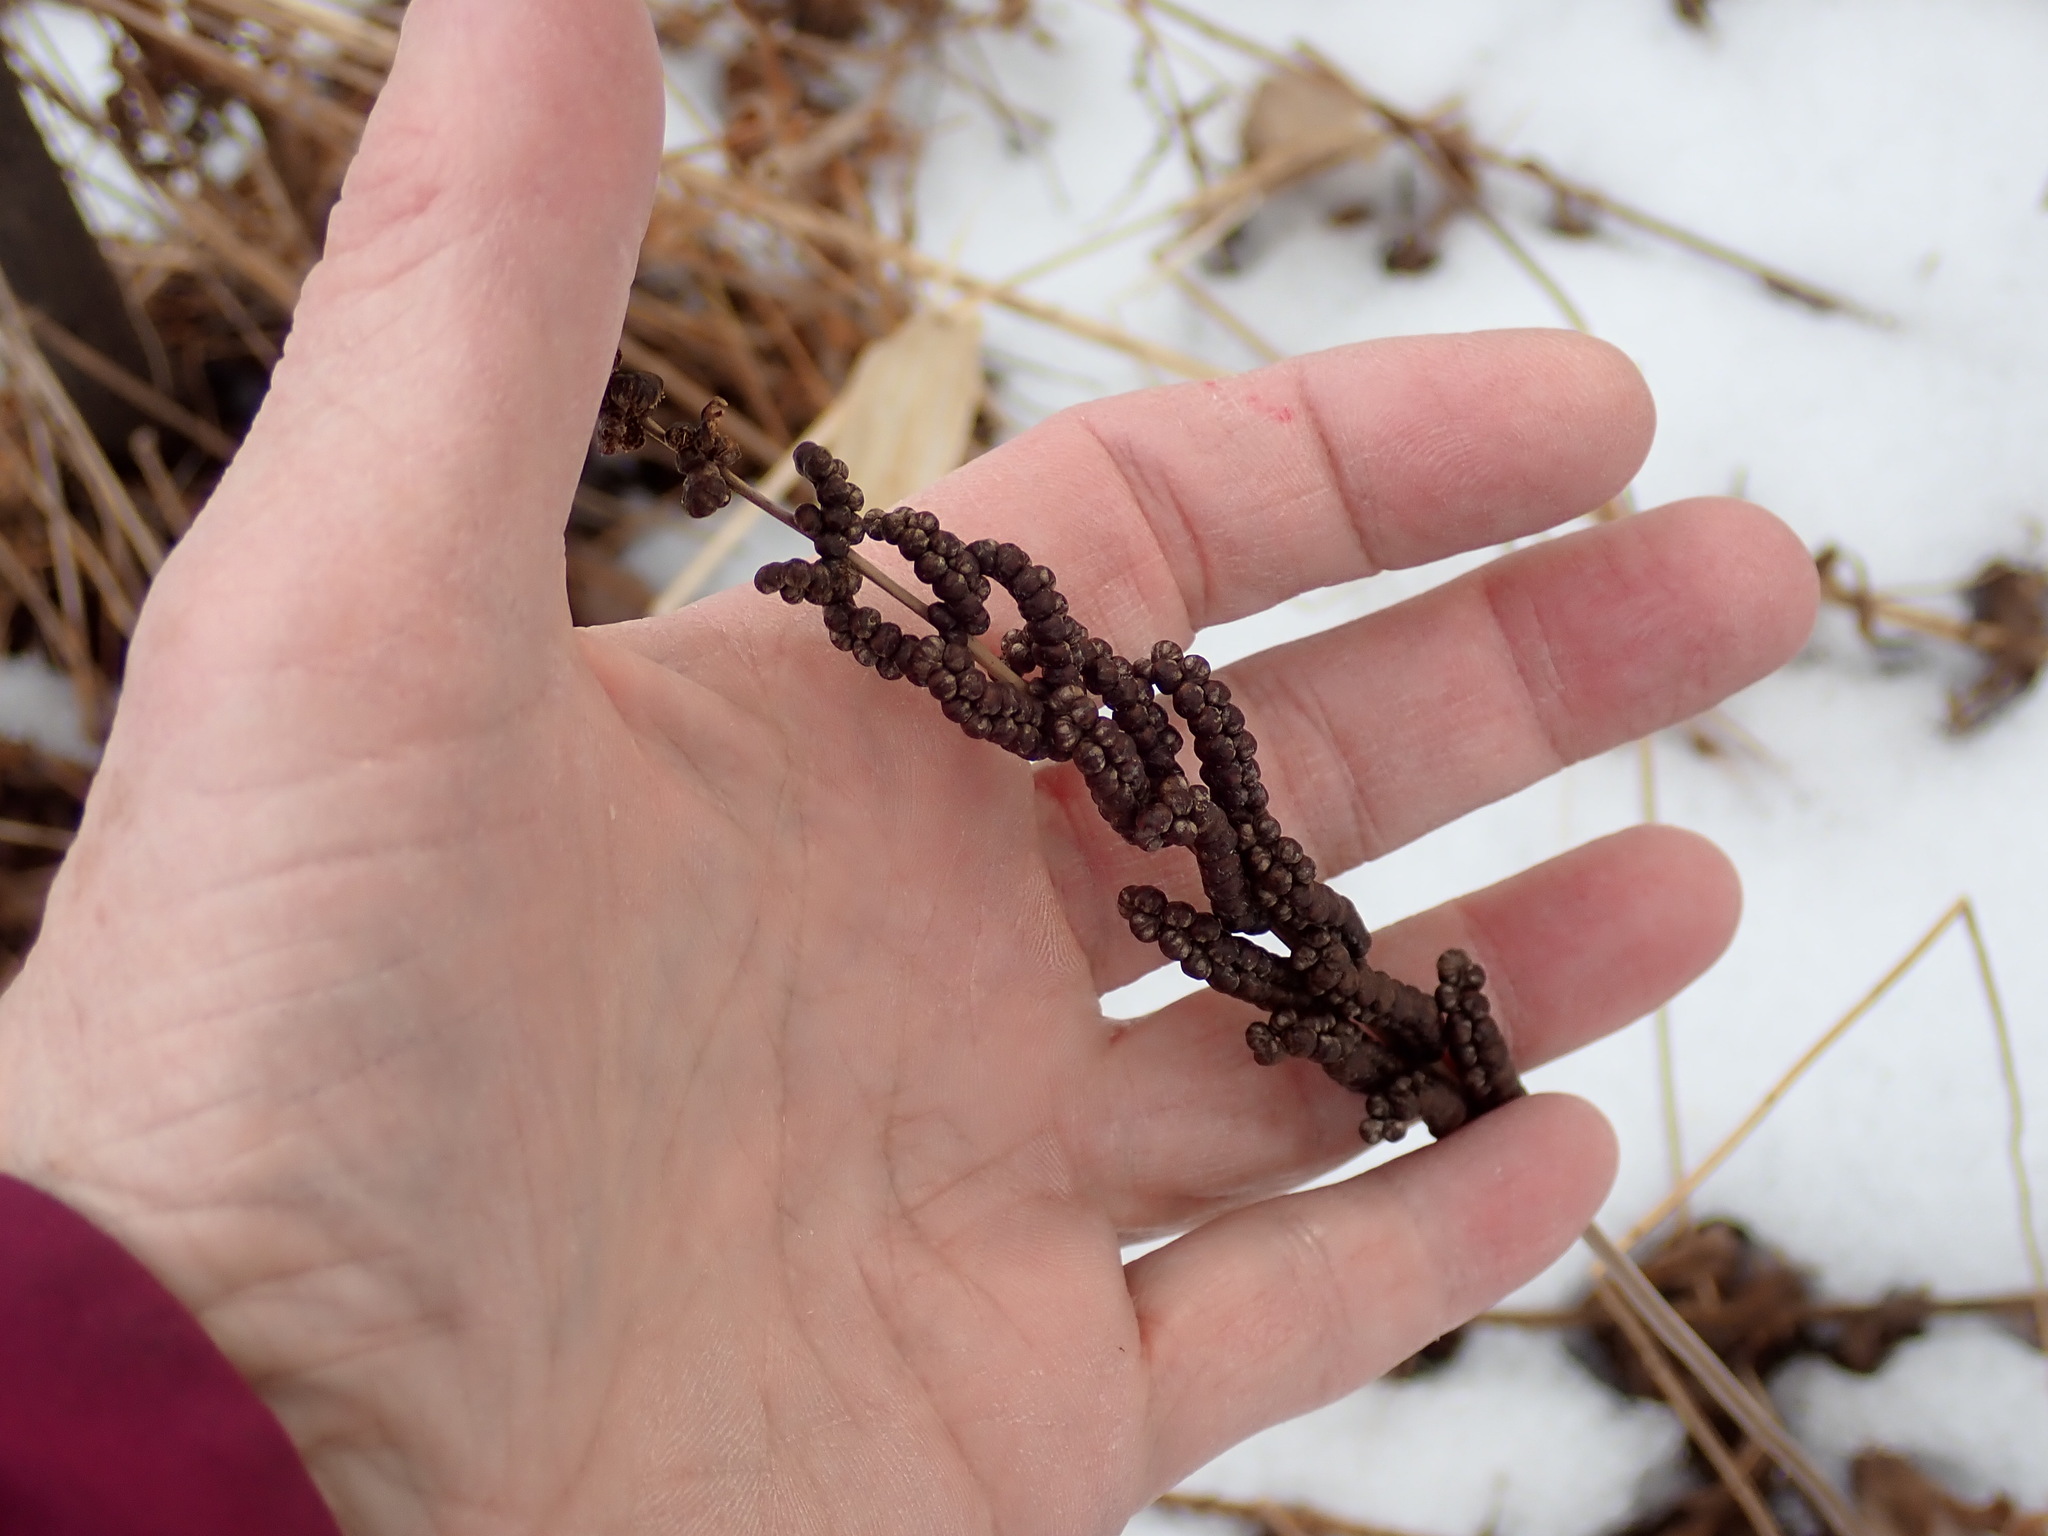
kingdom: Plantae
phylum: Tracheophyta
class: Polypodiopsida
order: Polypodiales
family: Onocleaceae
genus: Onoclea
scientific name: Onoclea sensibilis
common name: Sensitive fern
